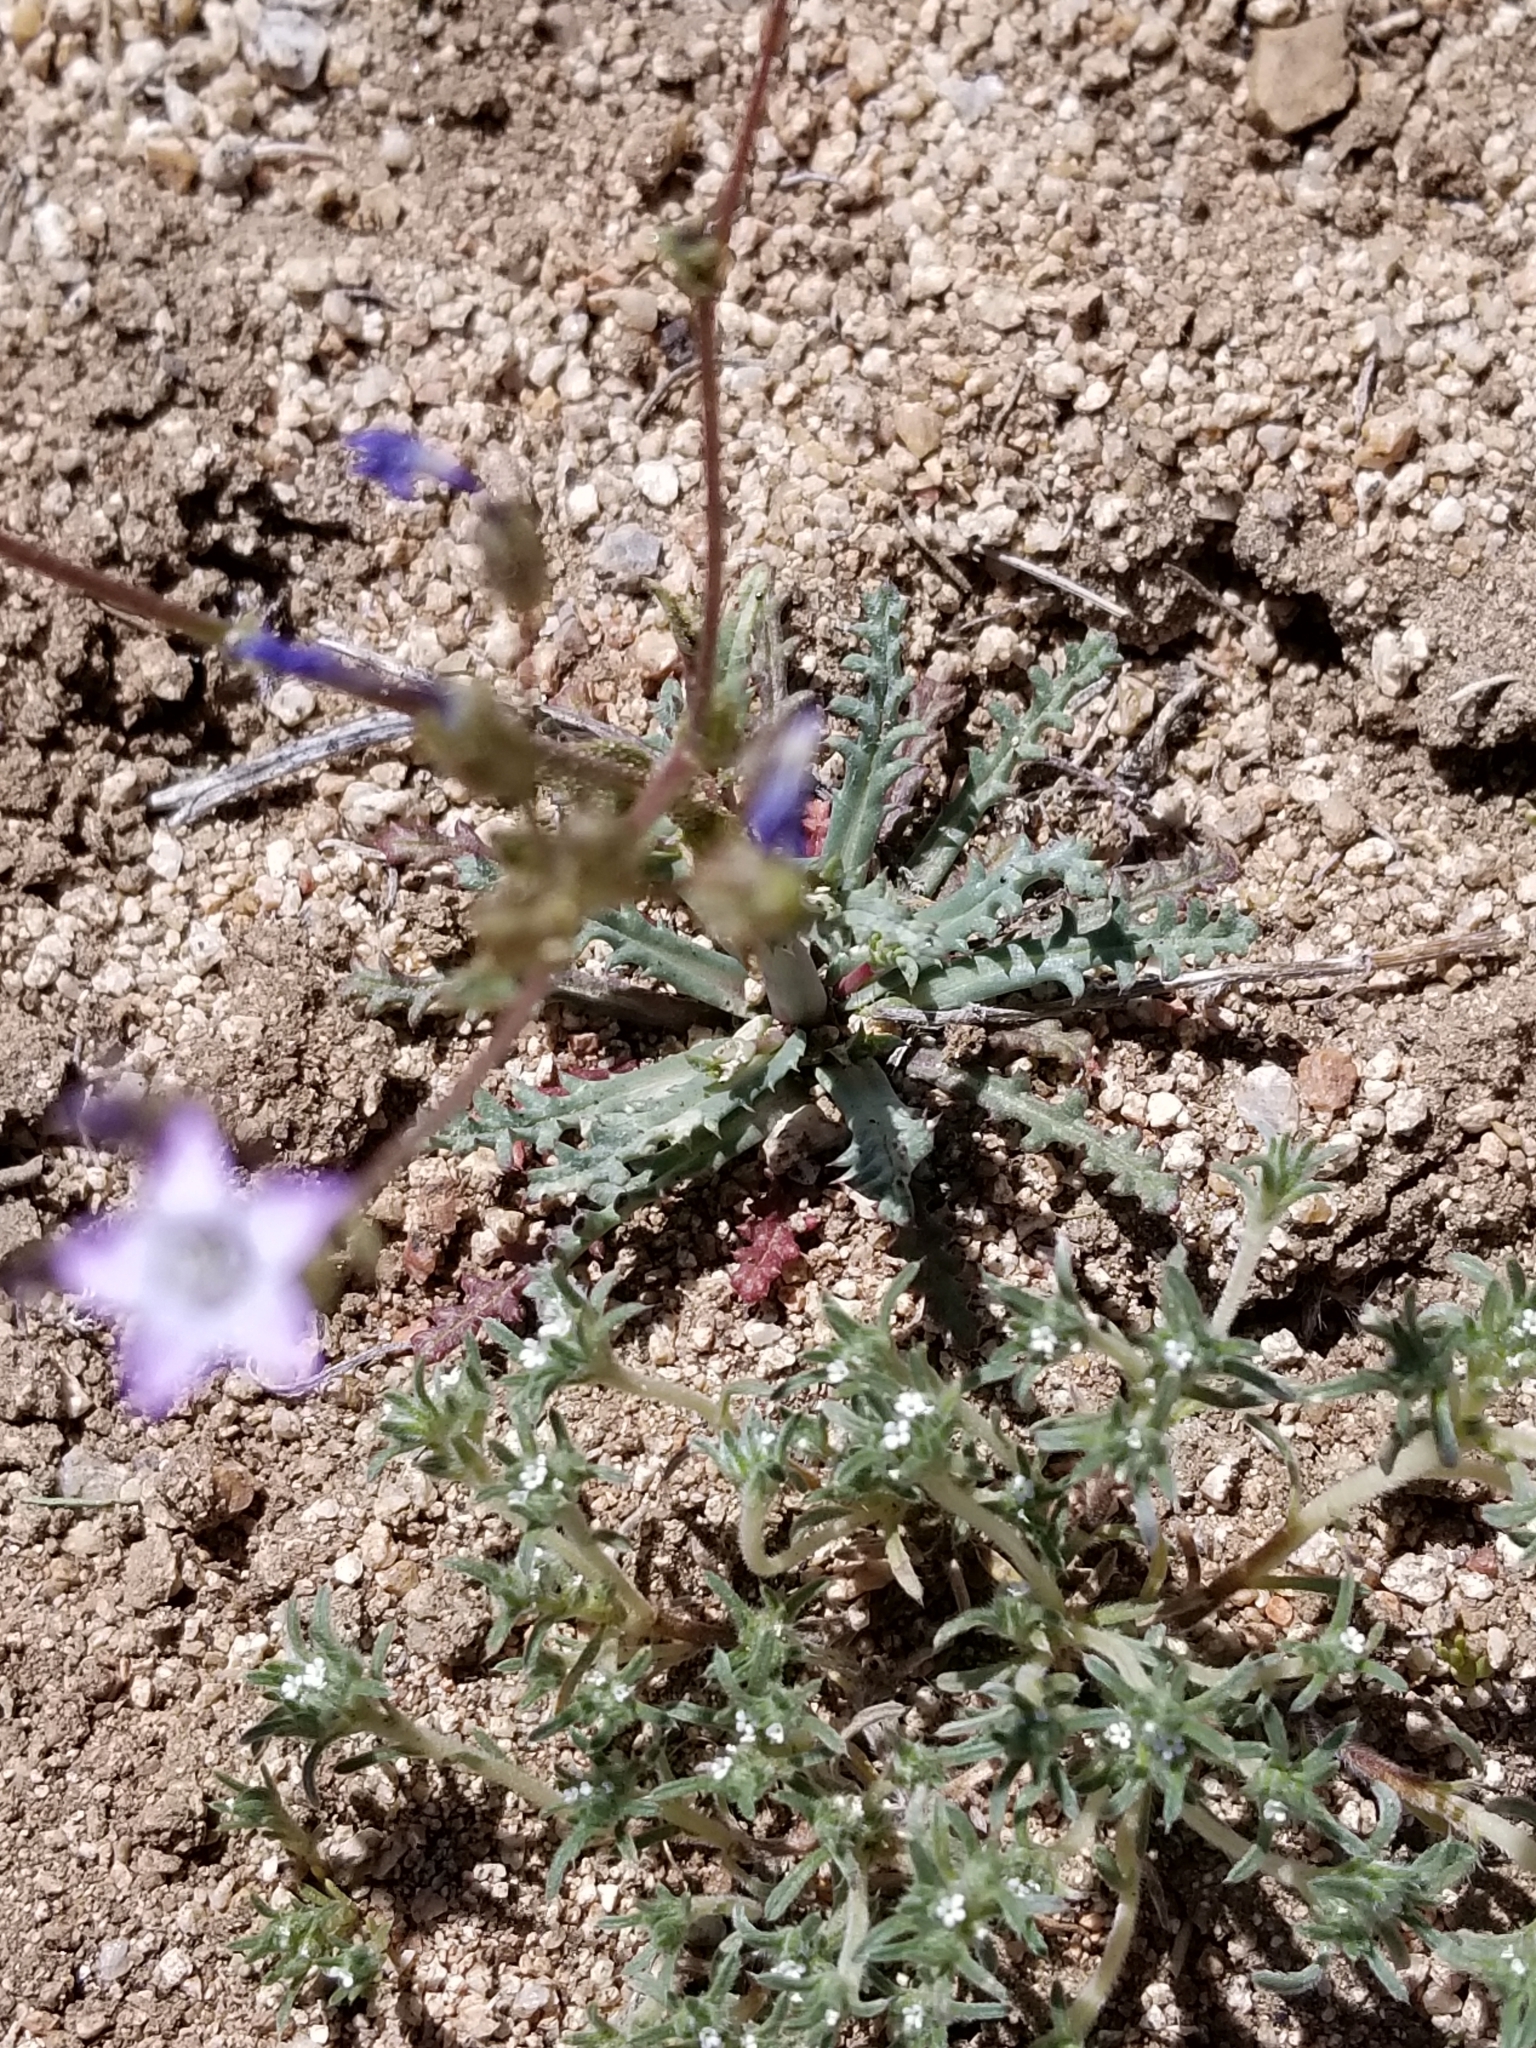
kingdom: Plantae
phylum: Tracheophyta
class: Magnoliopsida
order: Ericales
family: Polemoniaceae
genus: Gilia
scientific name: Gilia sinuata
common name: Rosy gilia
